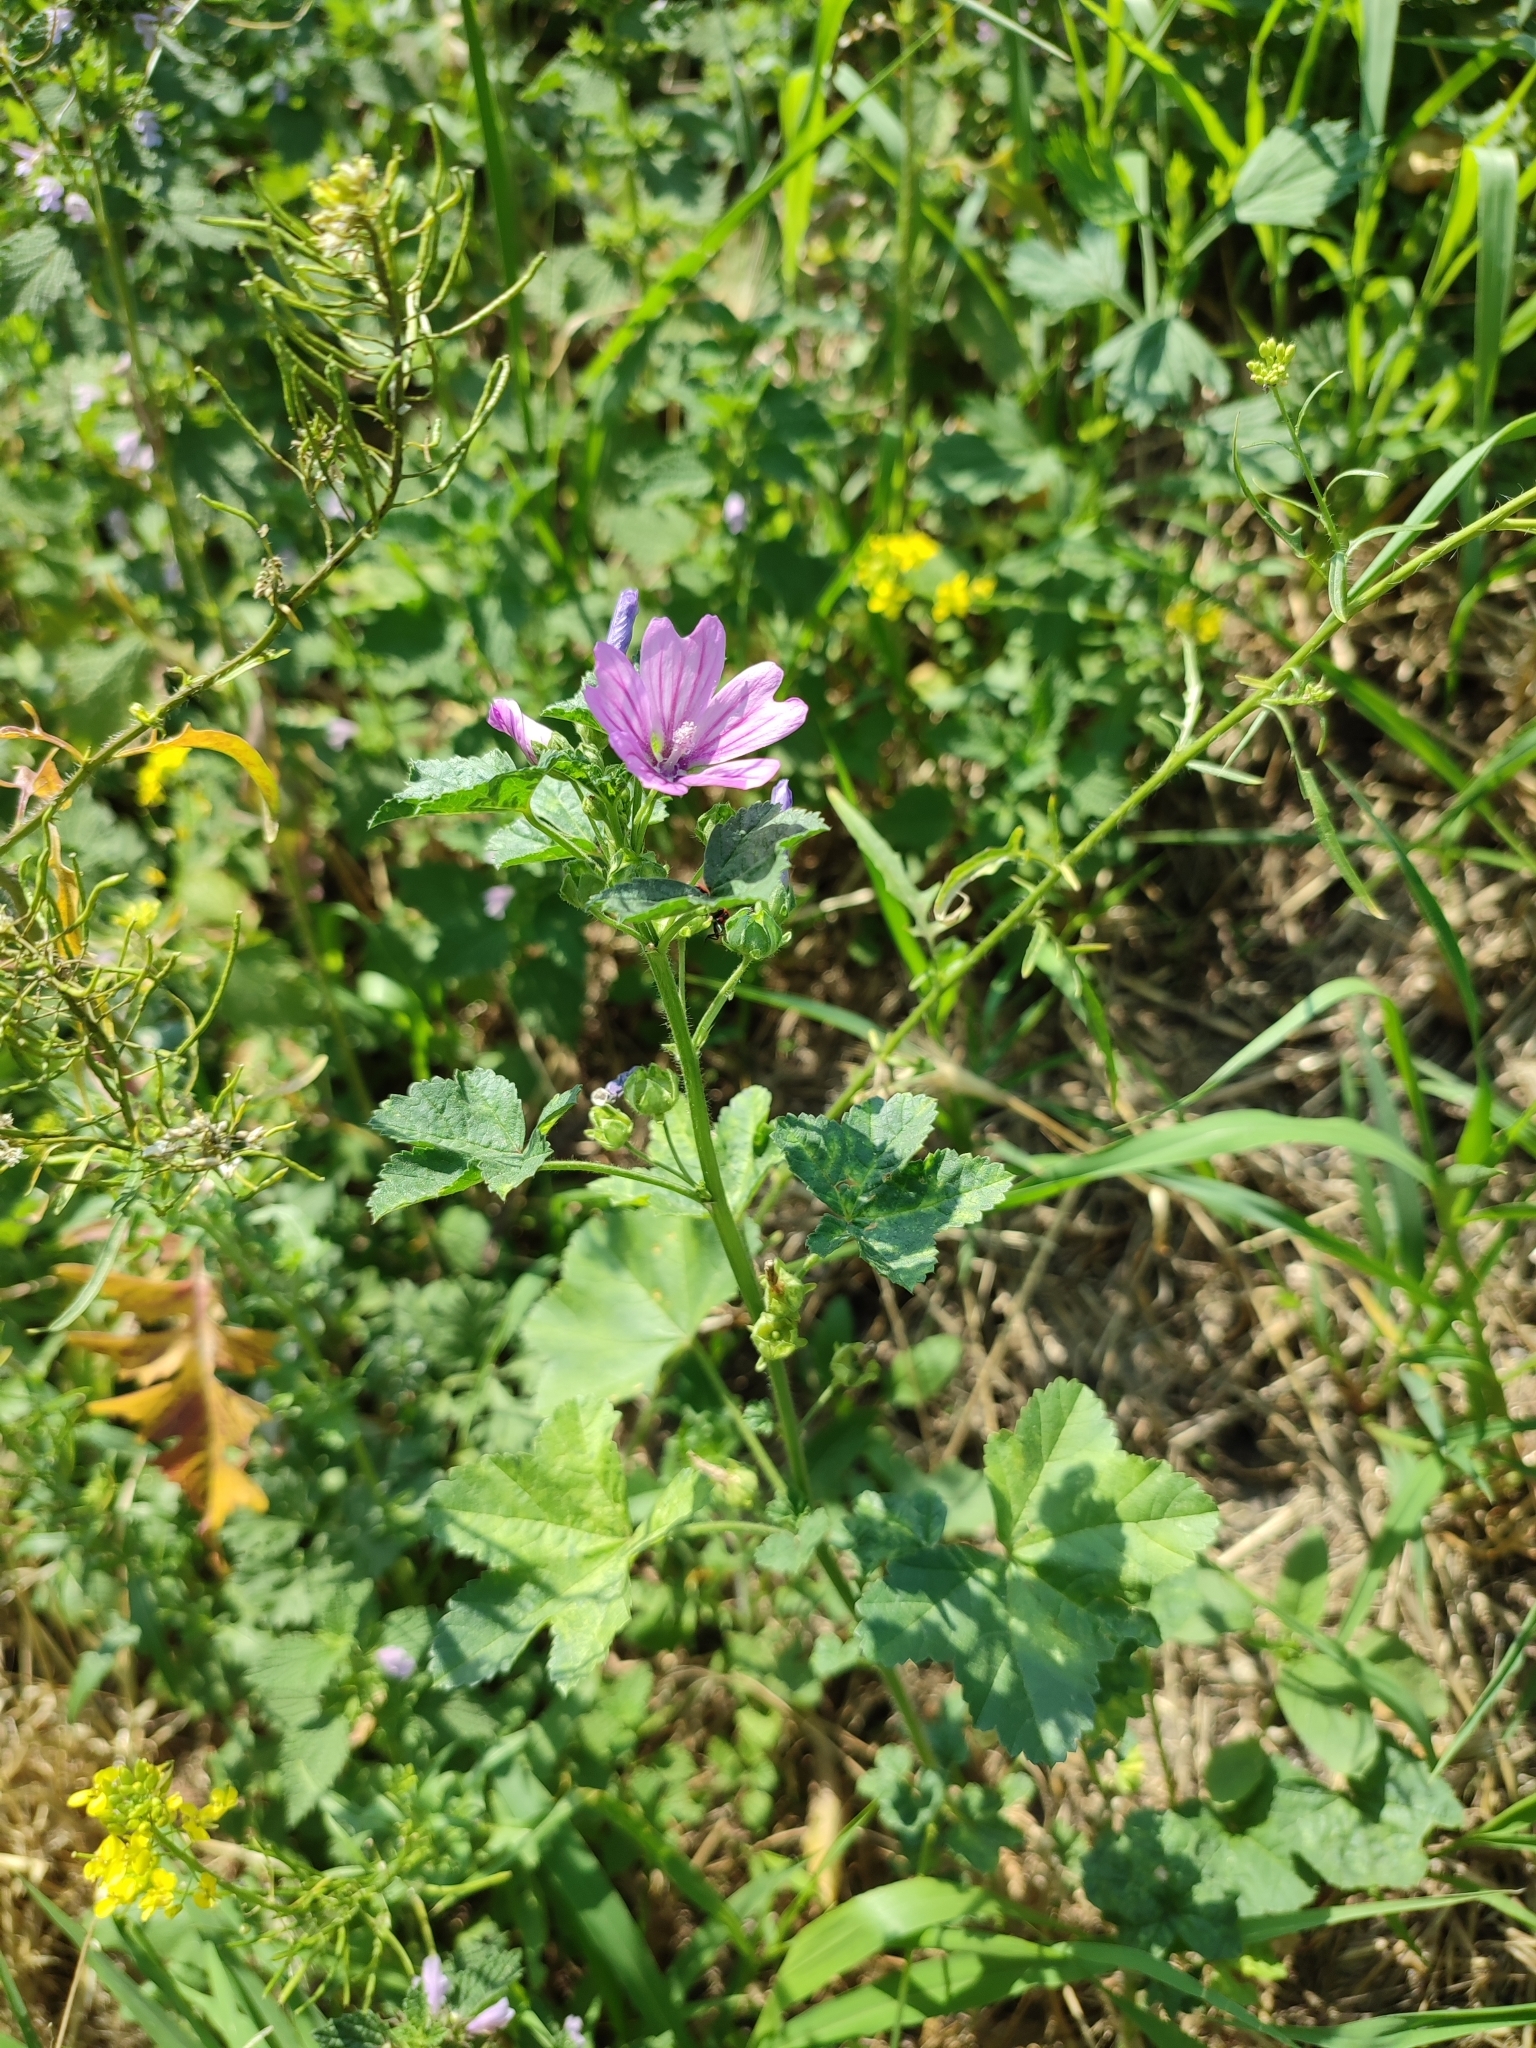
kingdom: Plantae
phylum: Tracheophyta
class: Magnoliopsida
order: Malvales
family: Malvaceae
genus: Malva
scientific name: Malva sylvestris
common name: Common mallow
